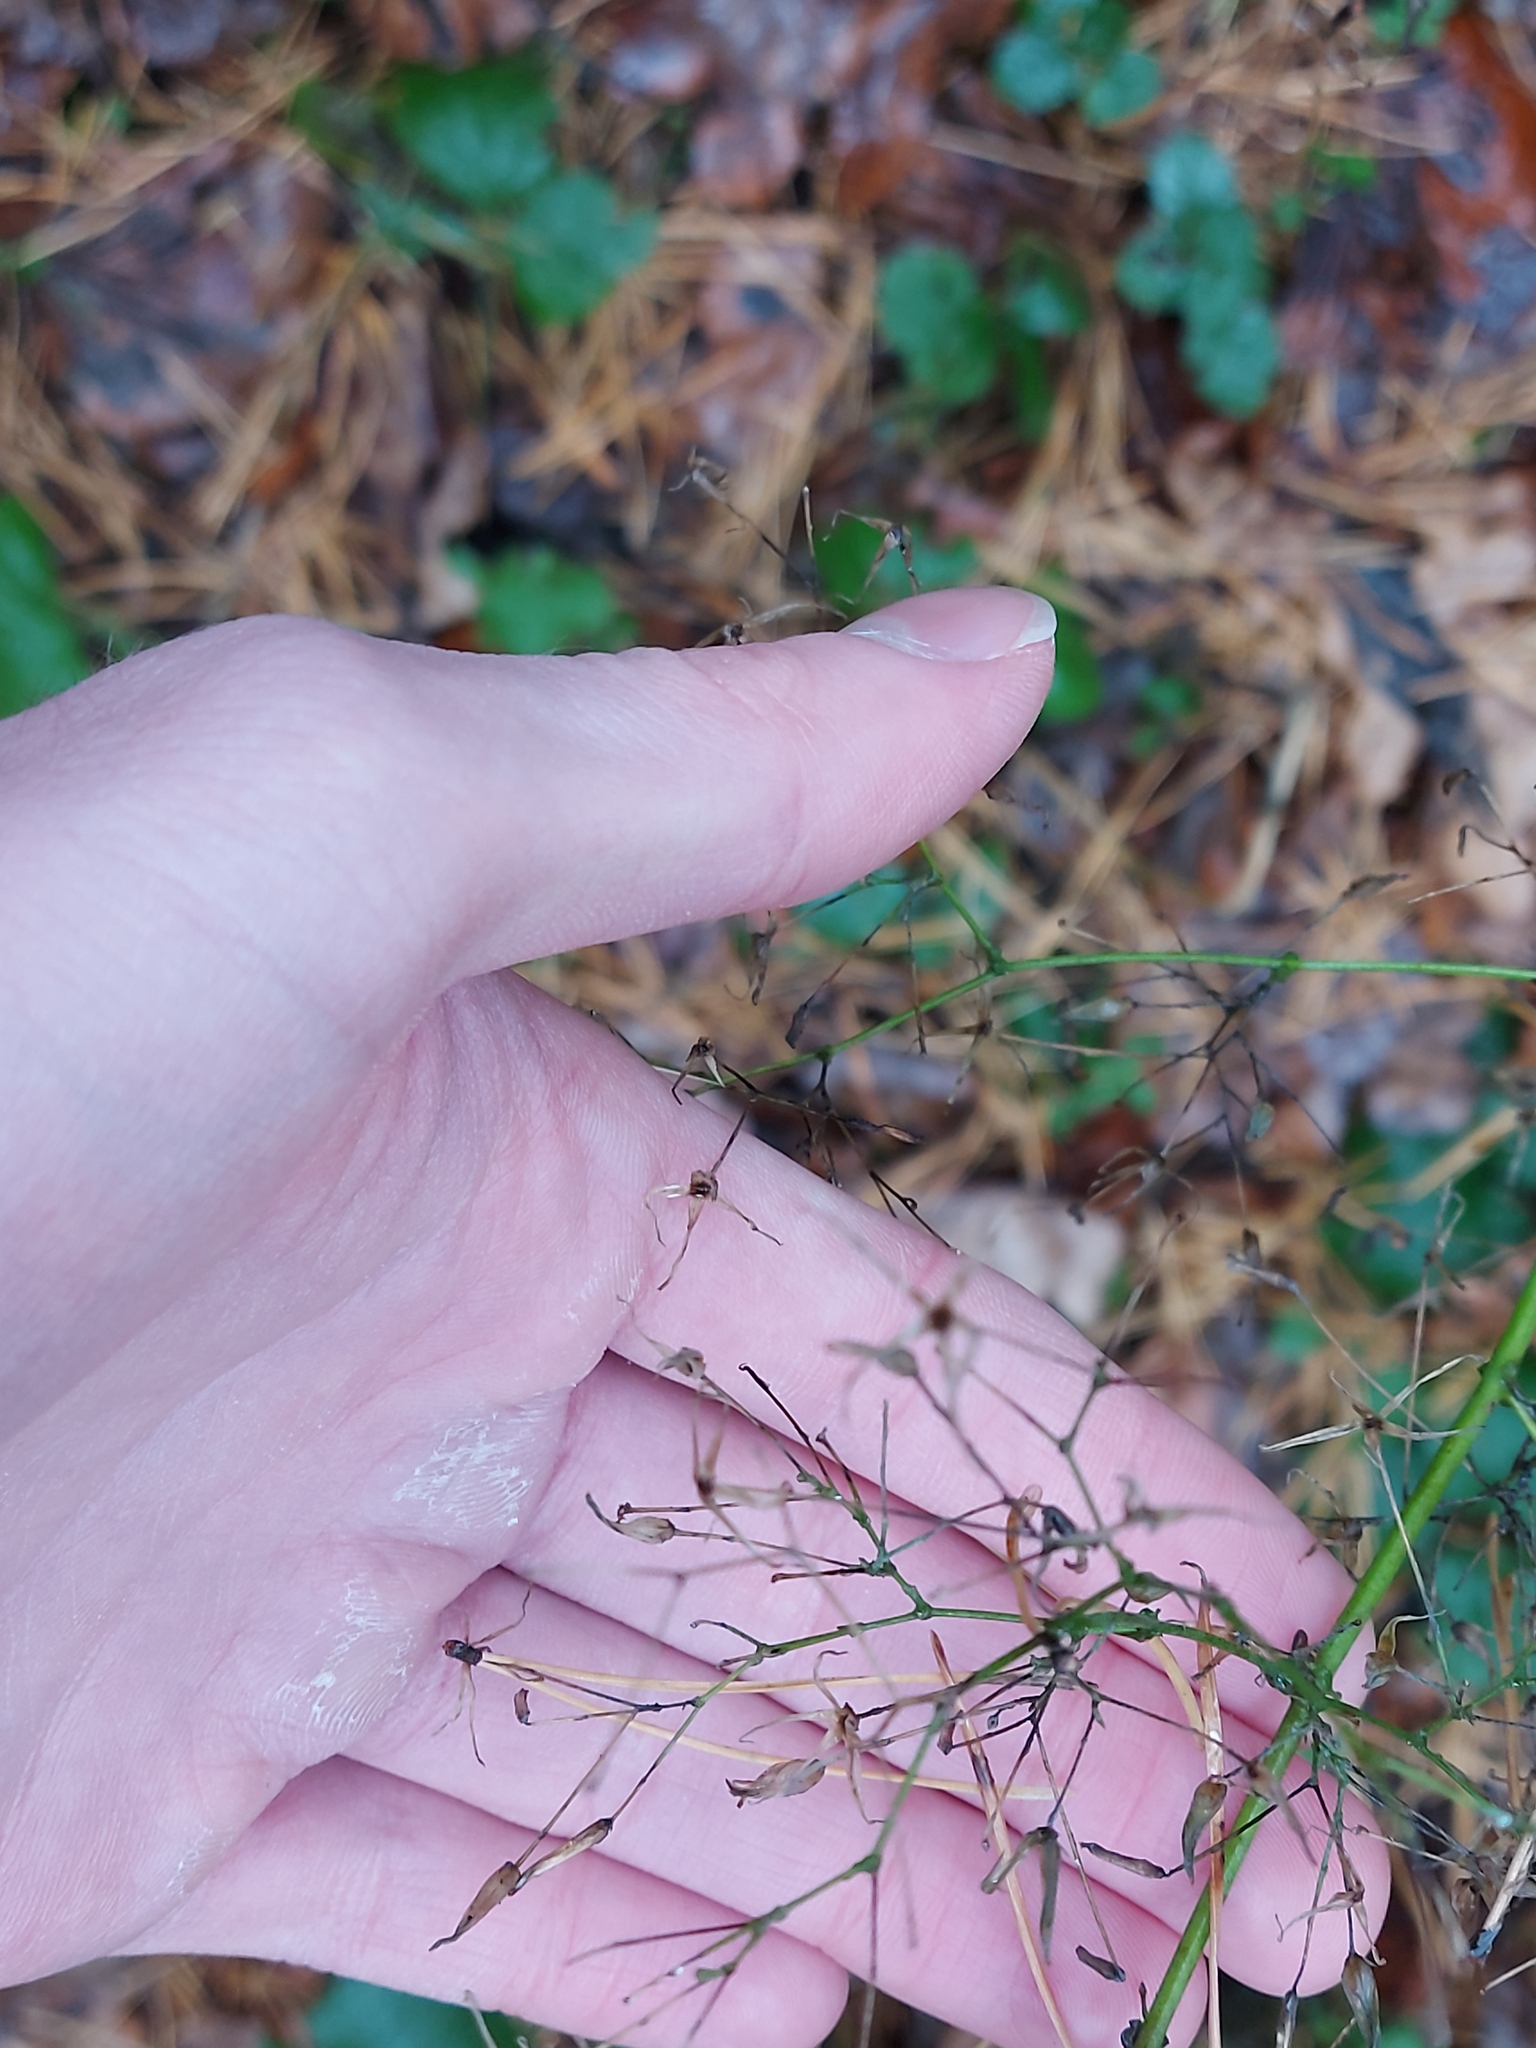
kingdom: Plantae
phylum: Tracheophyta
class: Magnoliopsida
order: Asterales
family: Asteraceae
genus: Mycelis
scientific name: Mycelis muralis
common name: Wall lettuce
